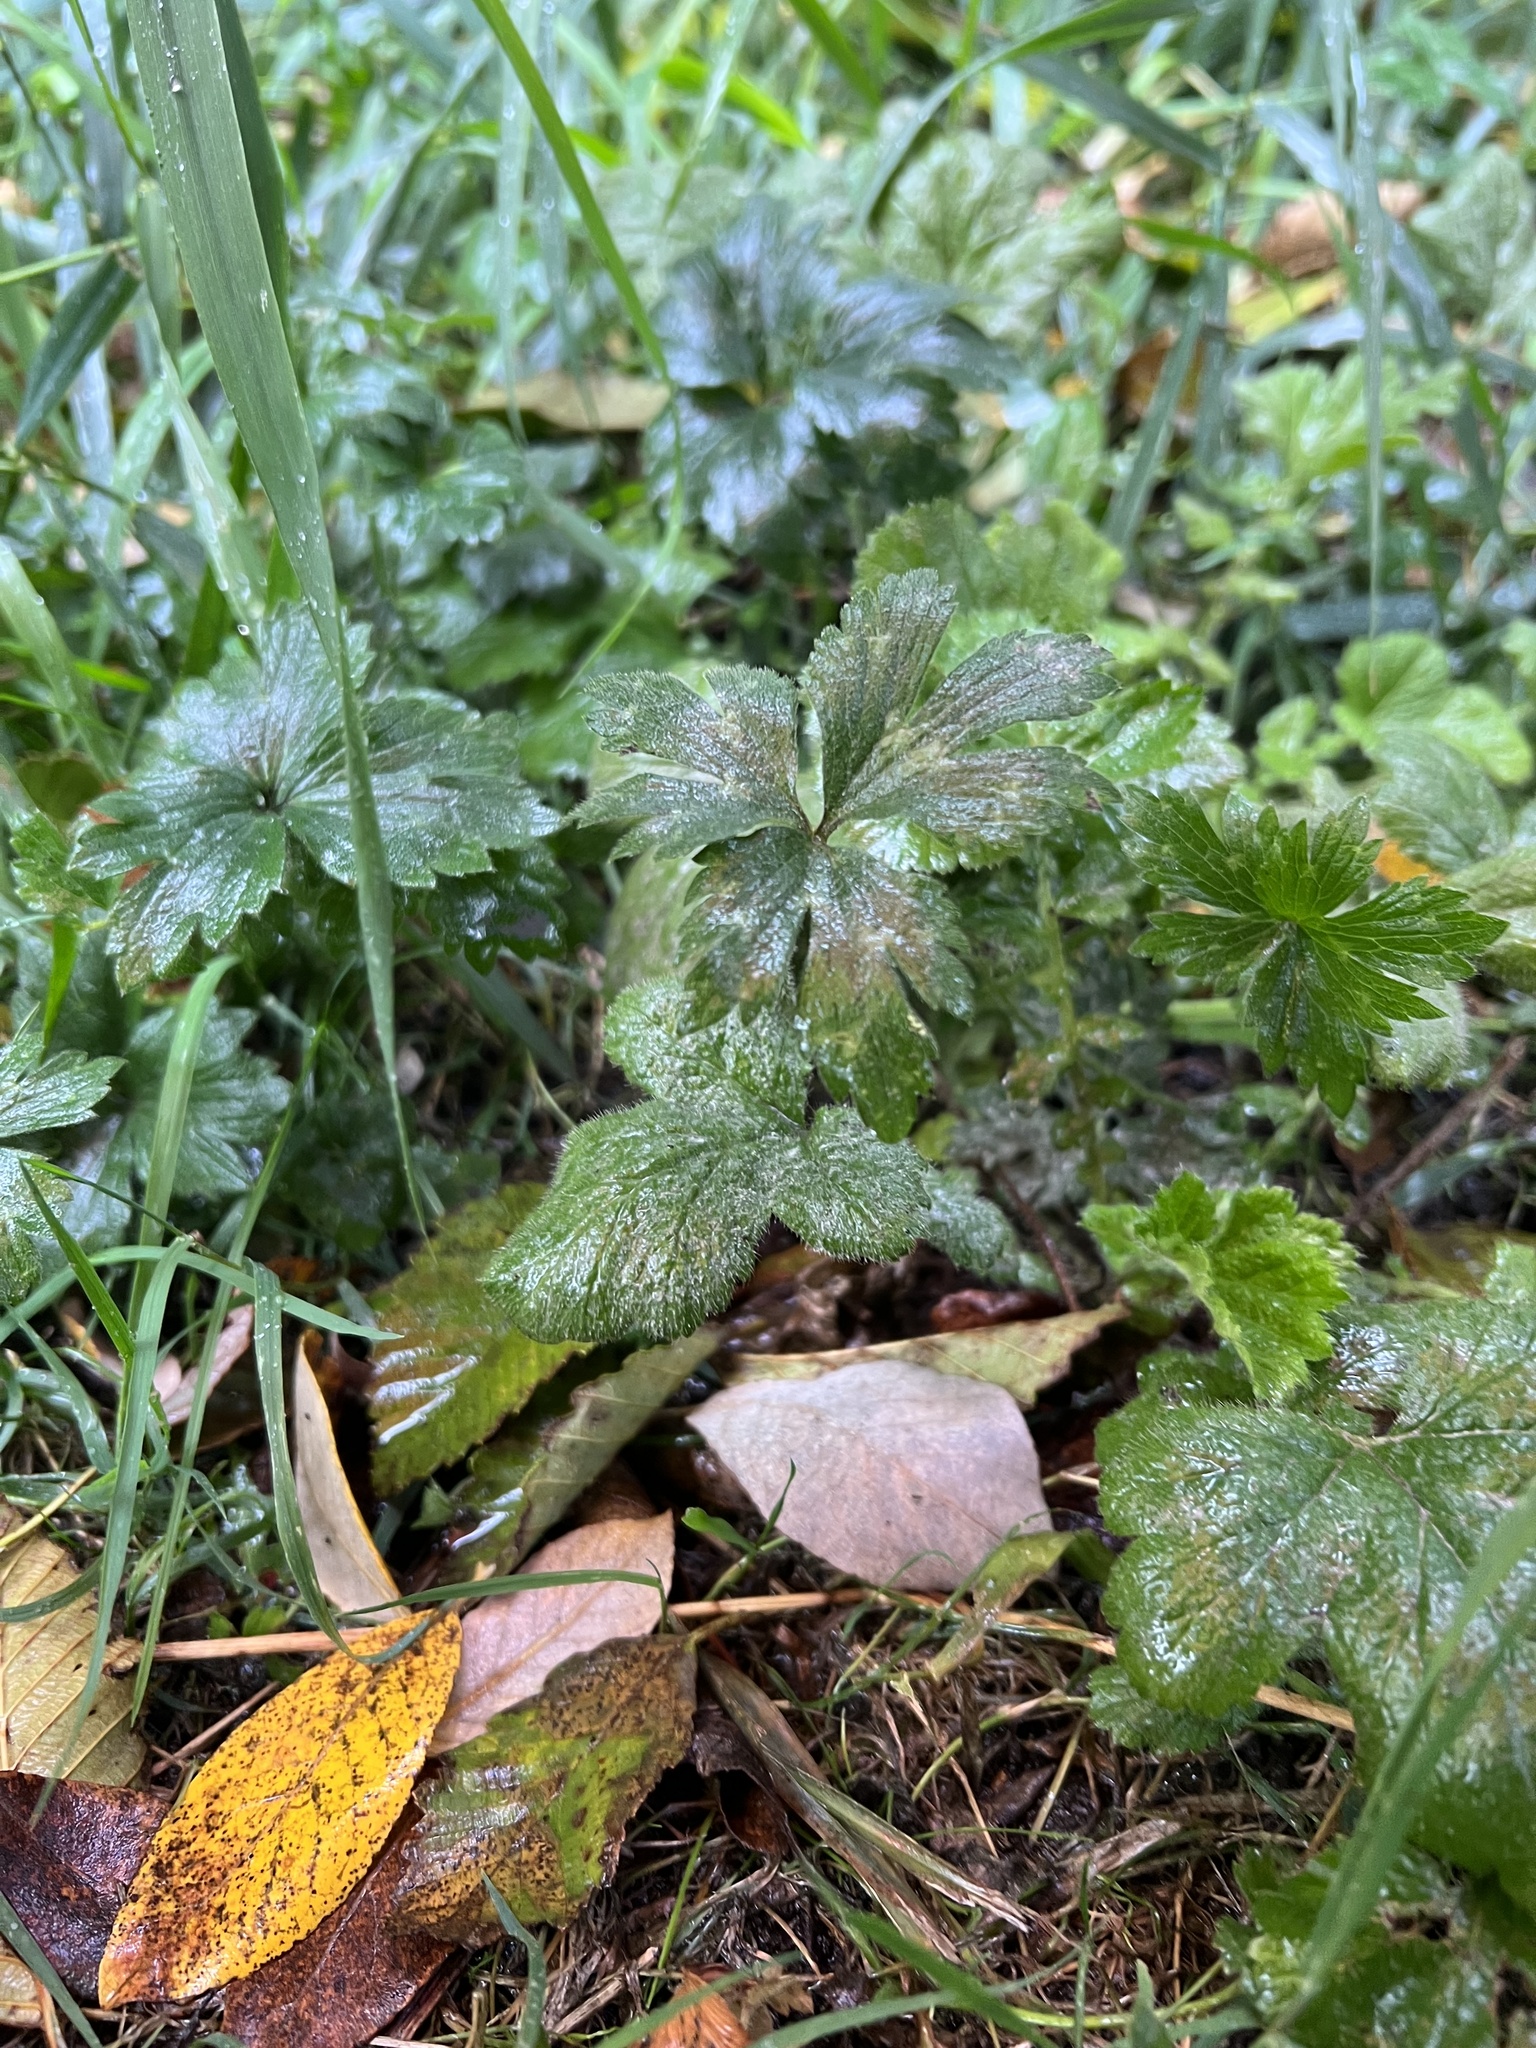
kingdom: Plantae
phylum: Tracheophyta
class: Magnoliopsida
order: Ranunculales
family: Ranunculaceae
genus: Ranunculus
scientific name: Ranunculus repens
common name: Creeping buttercup
